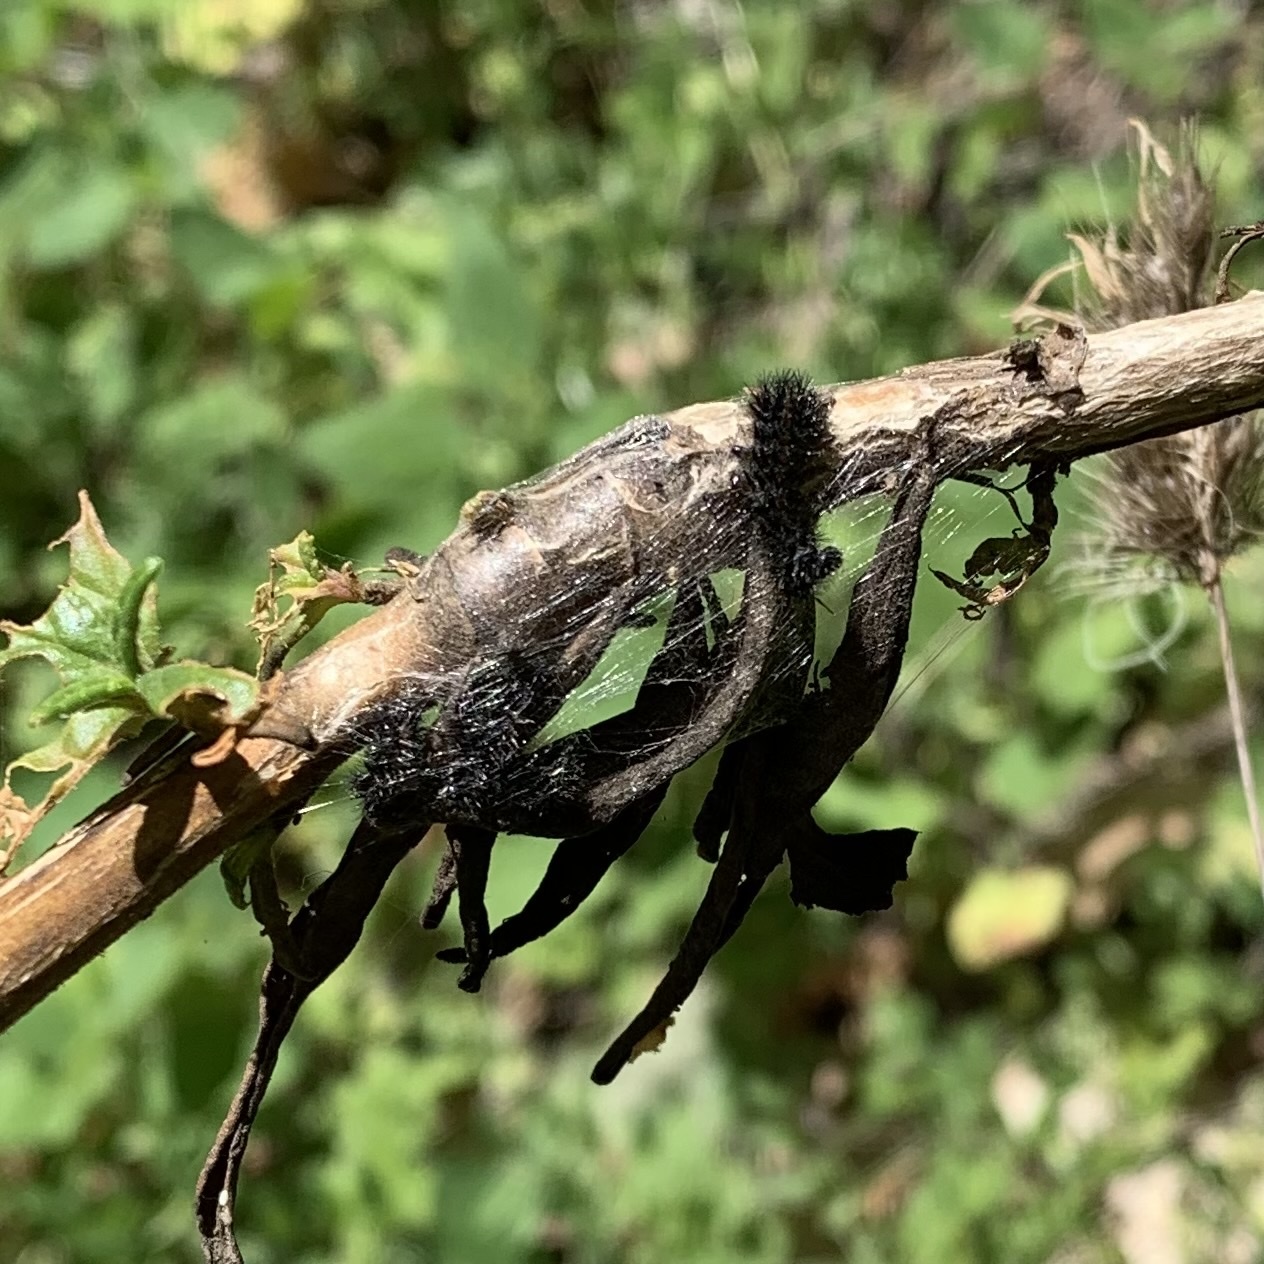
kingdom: Animalia
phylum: Arthropoda
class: Insecta
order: Lepidoptera
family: Nymphalidae
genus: Occidryas
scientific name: Occidryas chalcedona
